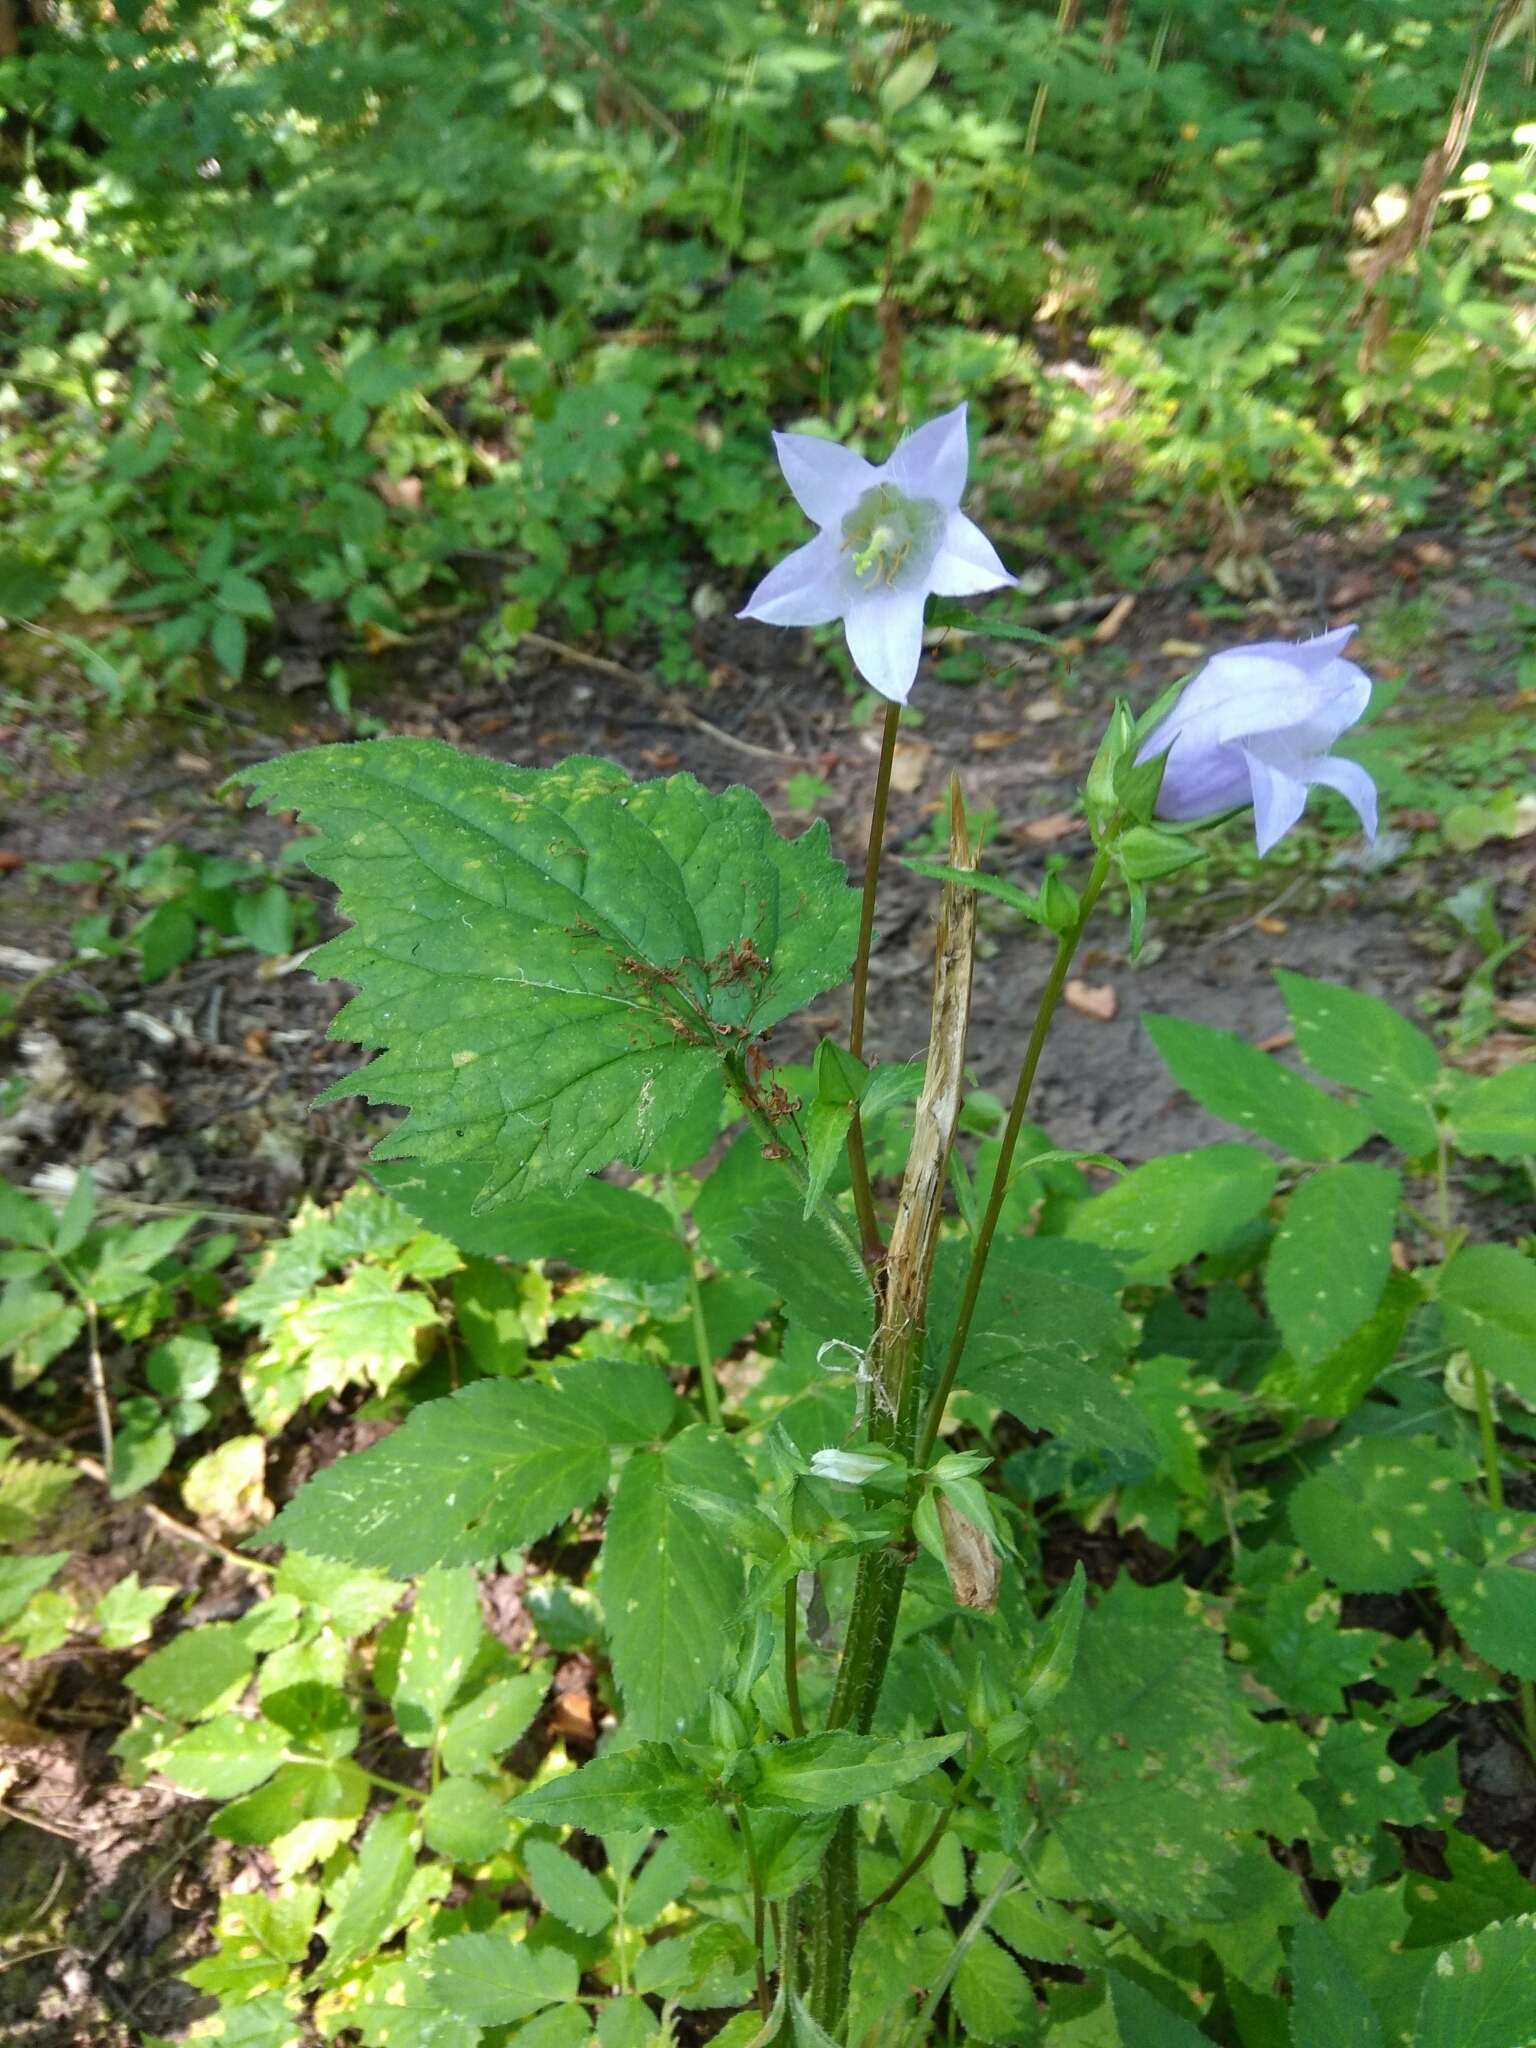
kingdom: Plantae
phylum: Tracheophyta
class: Magnoliopsida
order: Asterales
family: Campanulaceae
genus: Campanula
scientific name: Campanula trachelium
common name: Nettle-leaved bellflower
